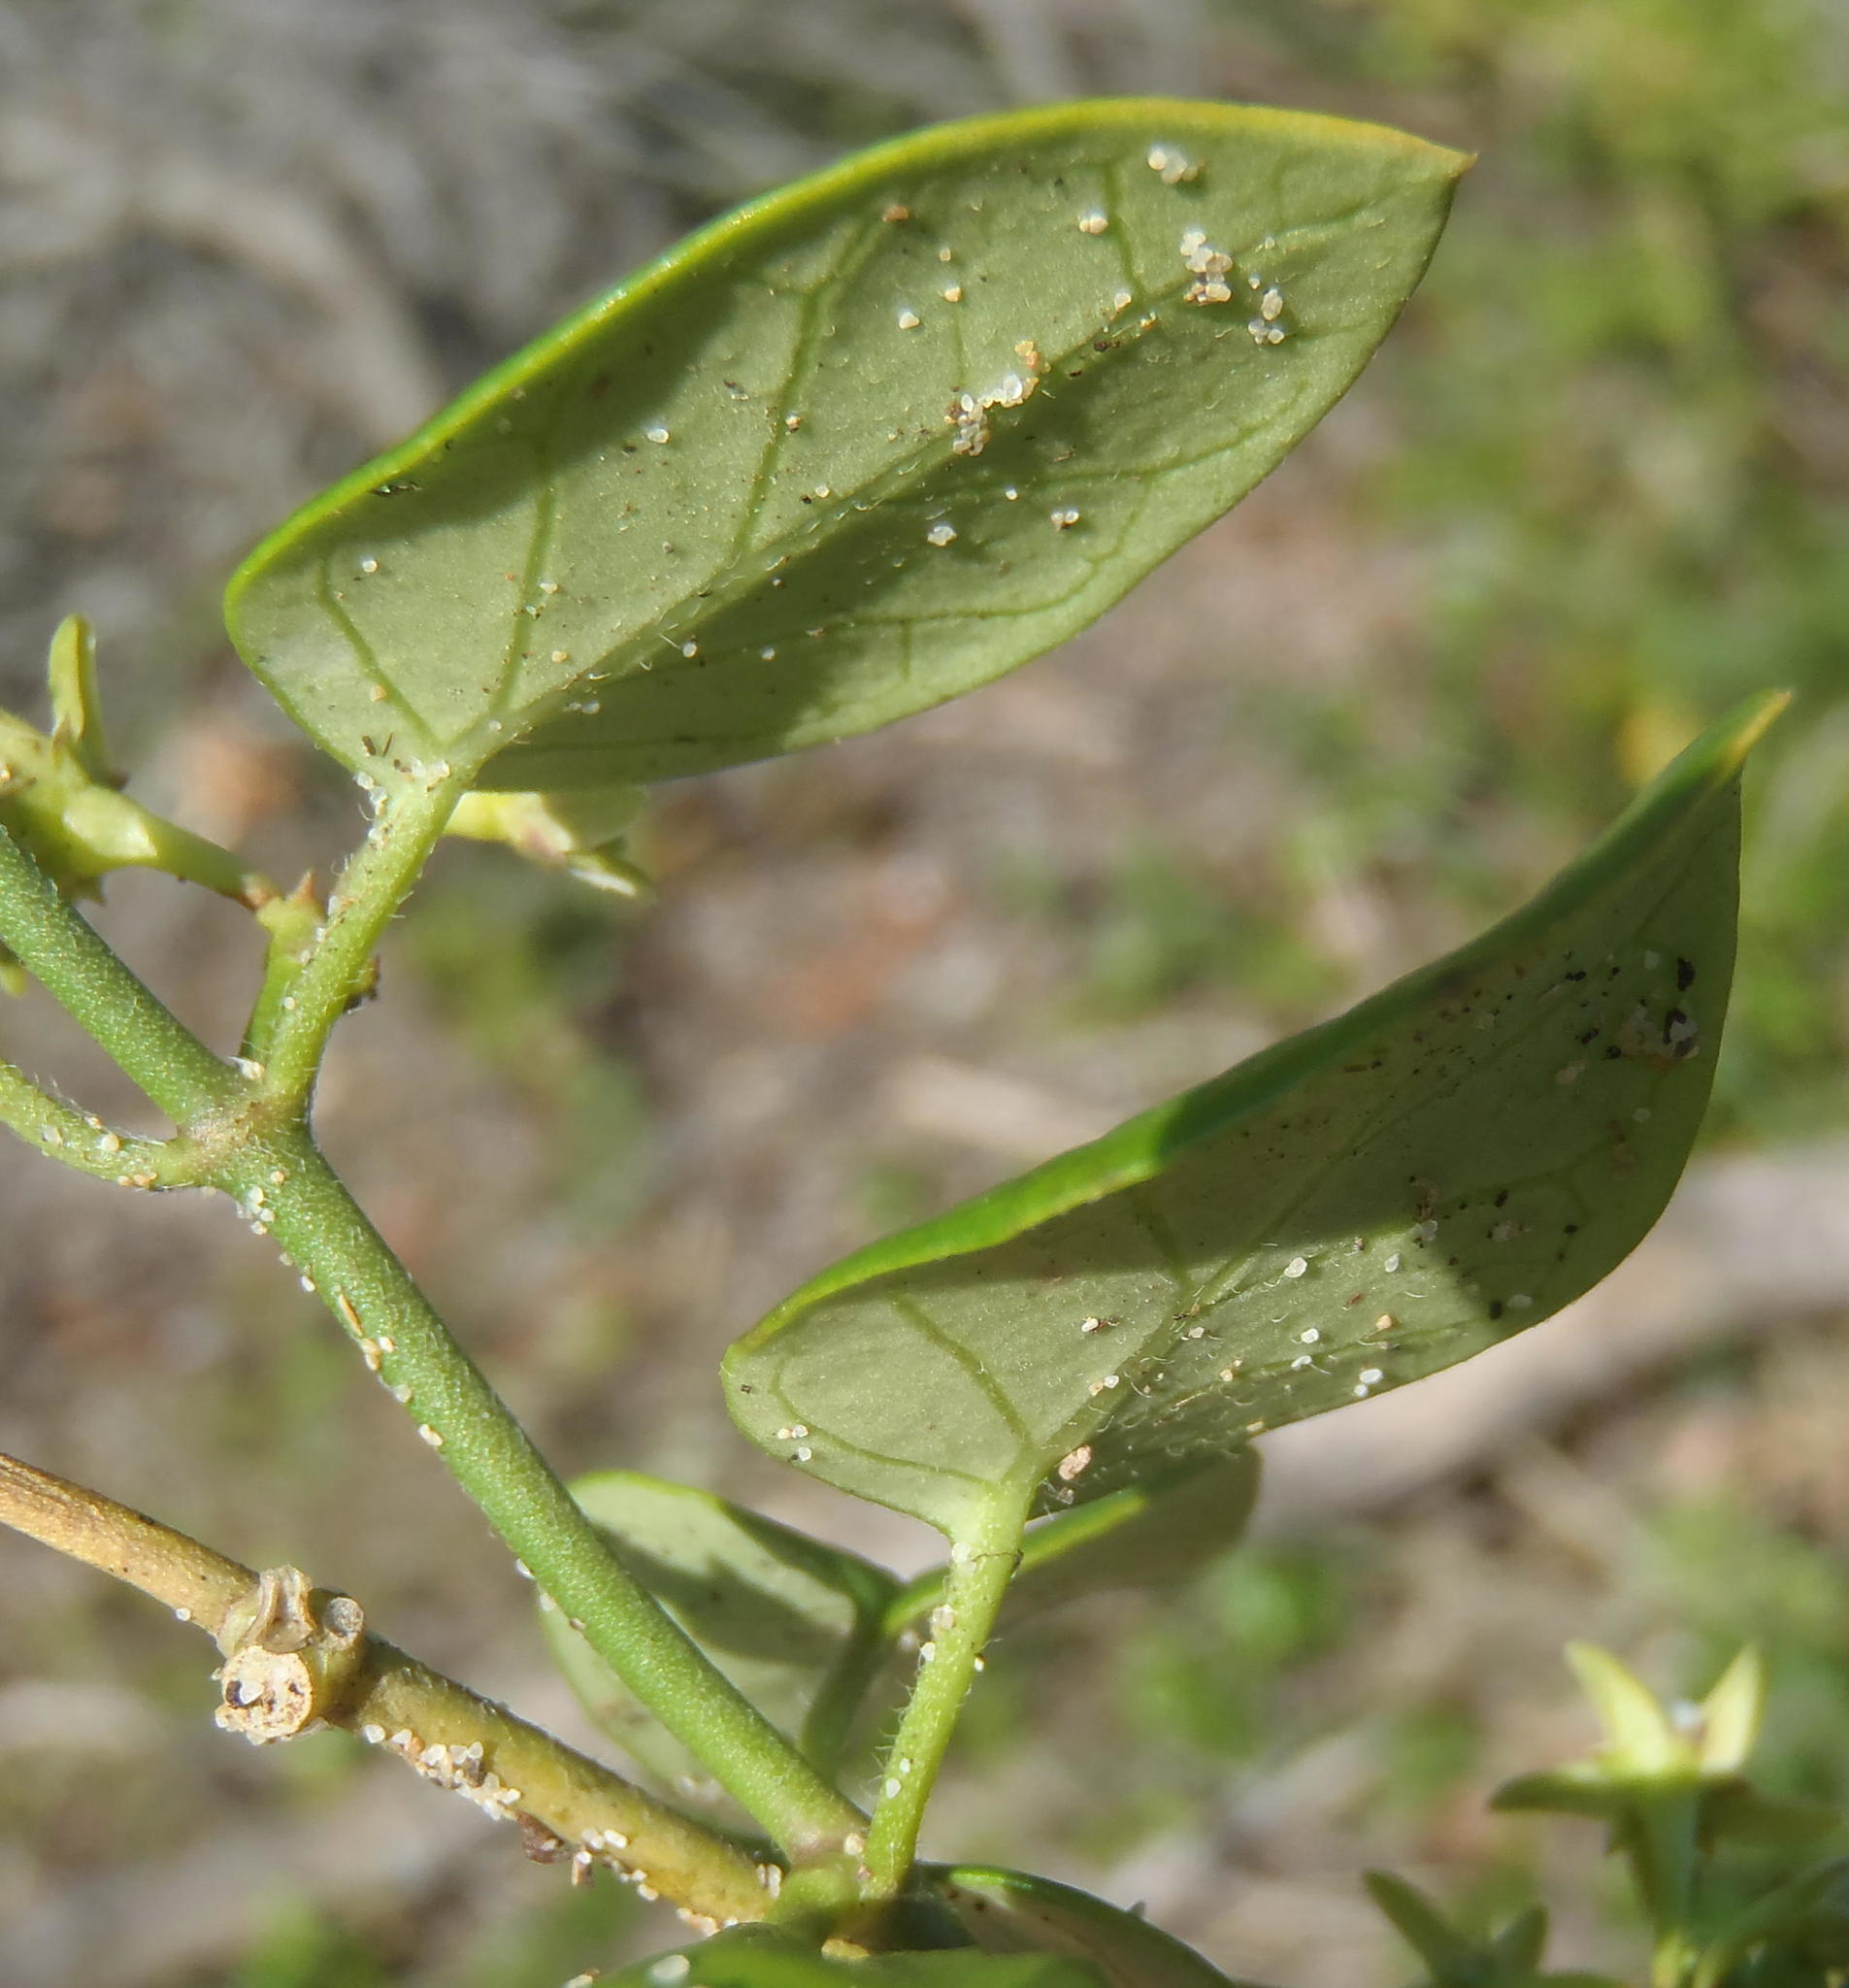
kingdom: Plantae
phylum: Tracheophyta
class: Magnoliopsida
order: Gentianales
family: Apocynaceae
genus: Cynanchum
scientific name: Cynanchum obtusifolium
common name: Monkey-rope
